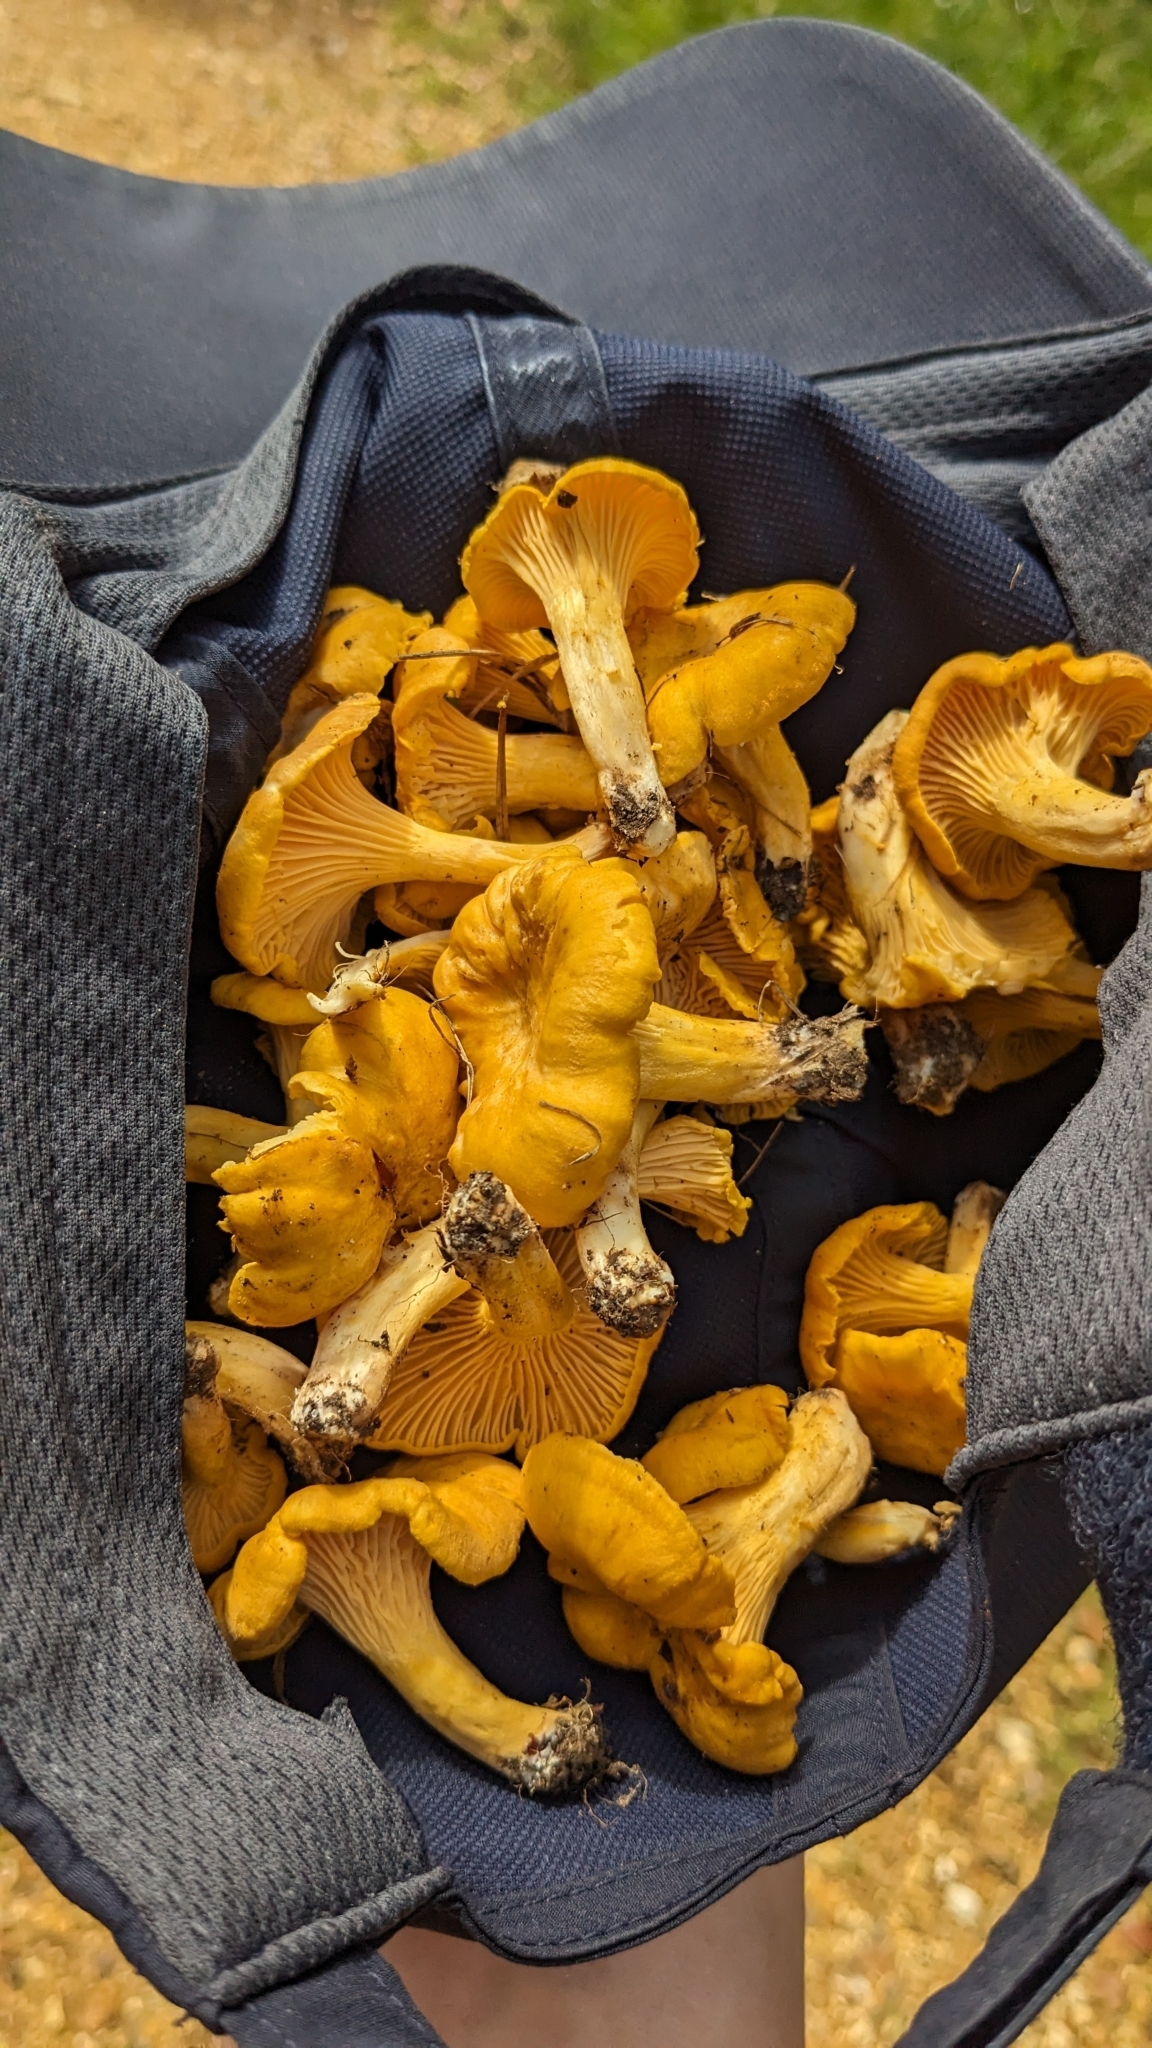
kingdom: Fungi
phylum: Basidiomycota
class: Agaricomycetes
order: Cantharellales
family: Hydnaceae
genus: Cantharellus
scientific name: Cantharellus cibarius
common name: Chanterelle
